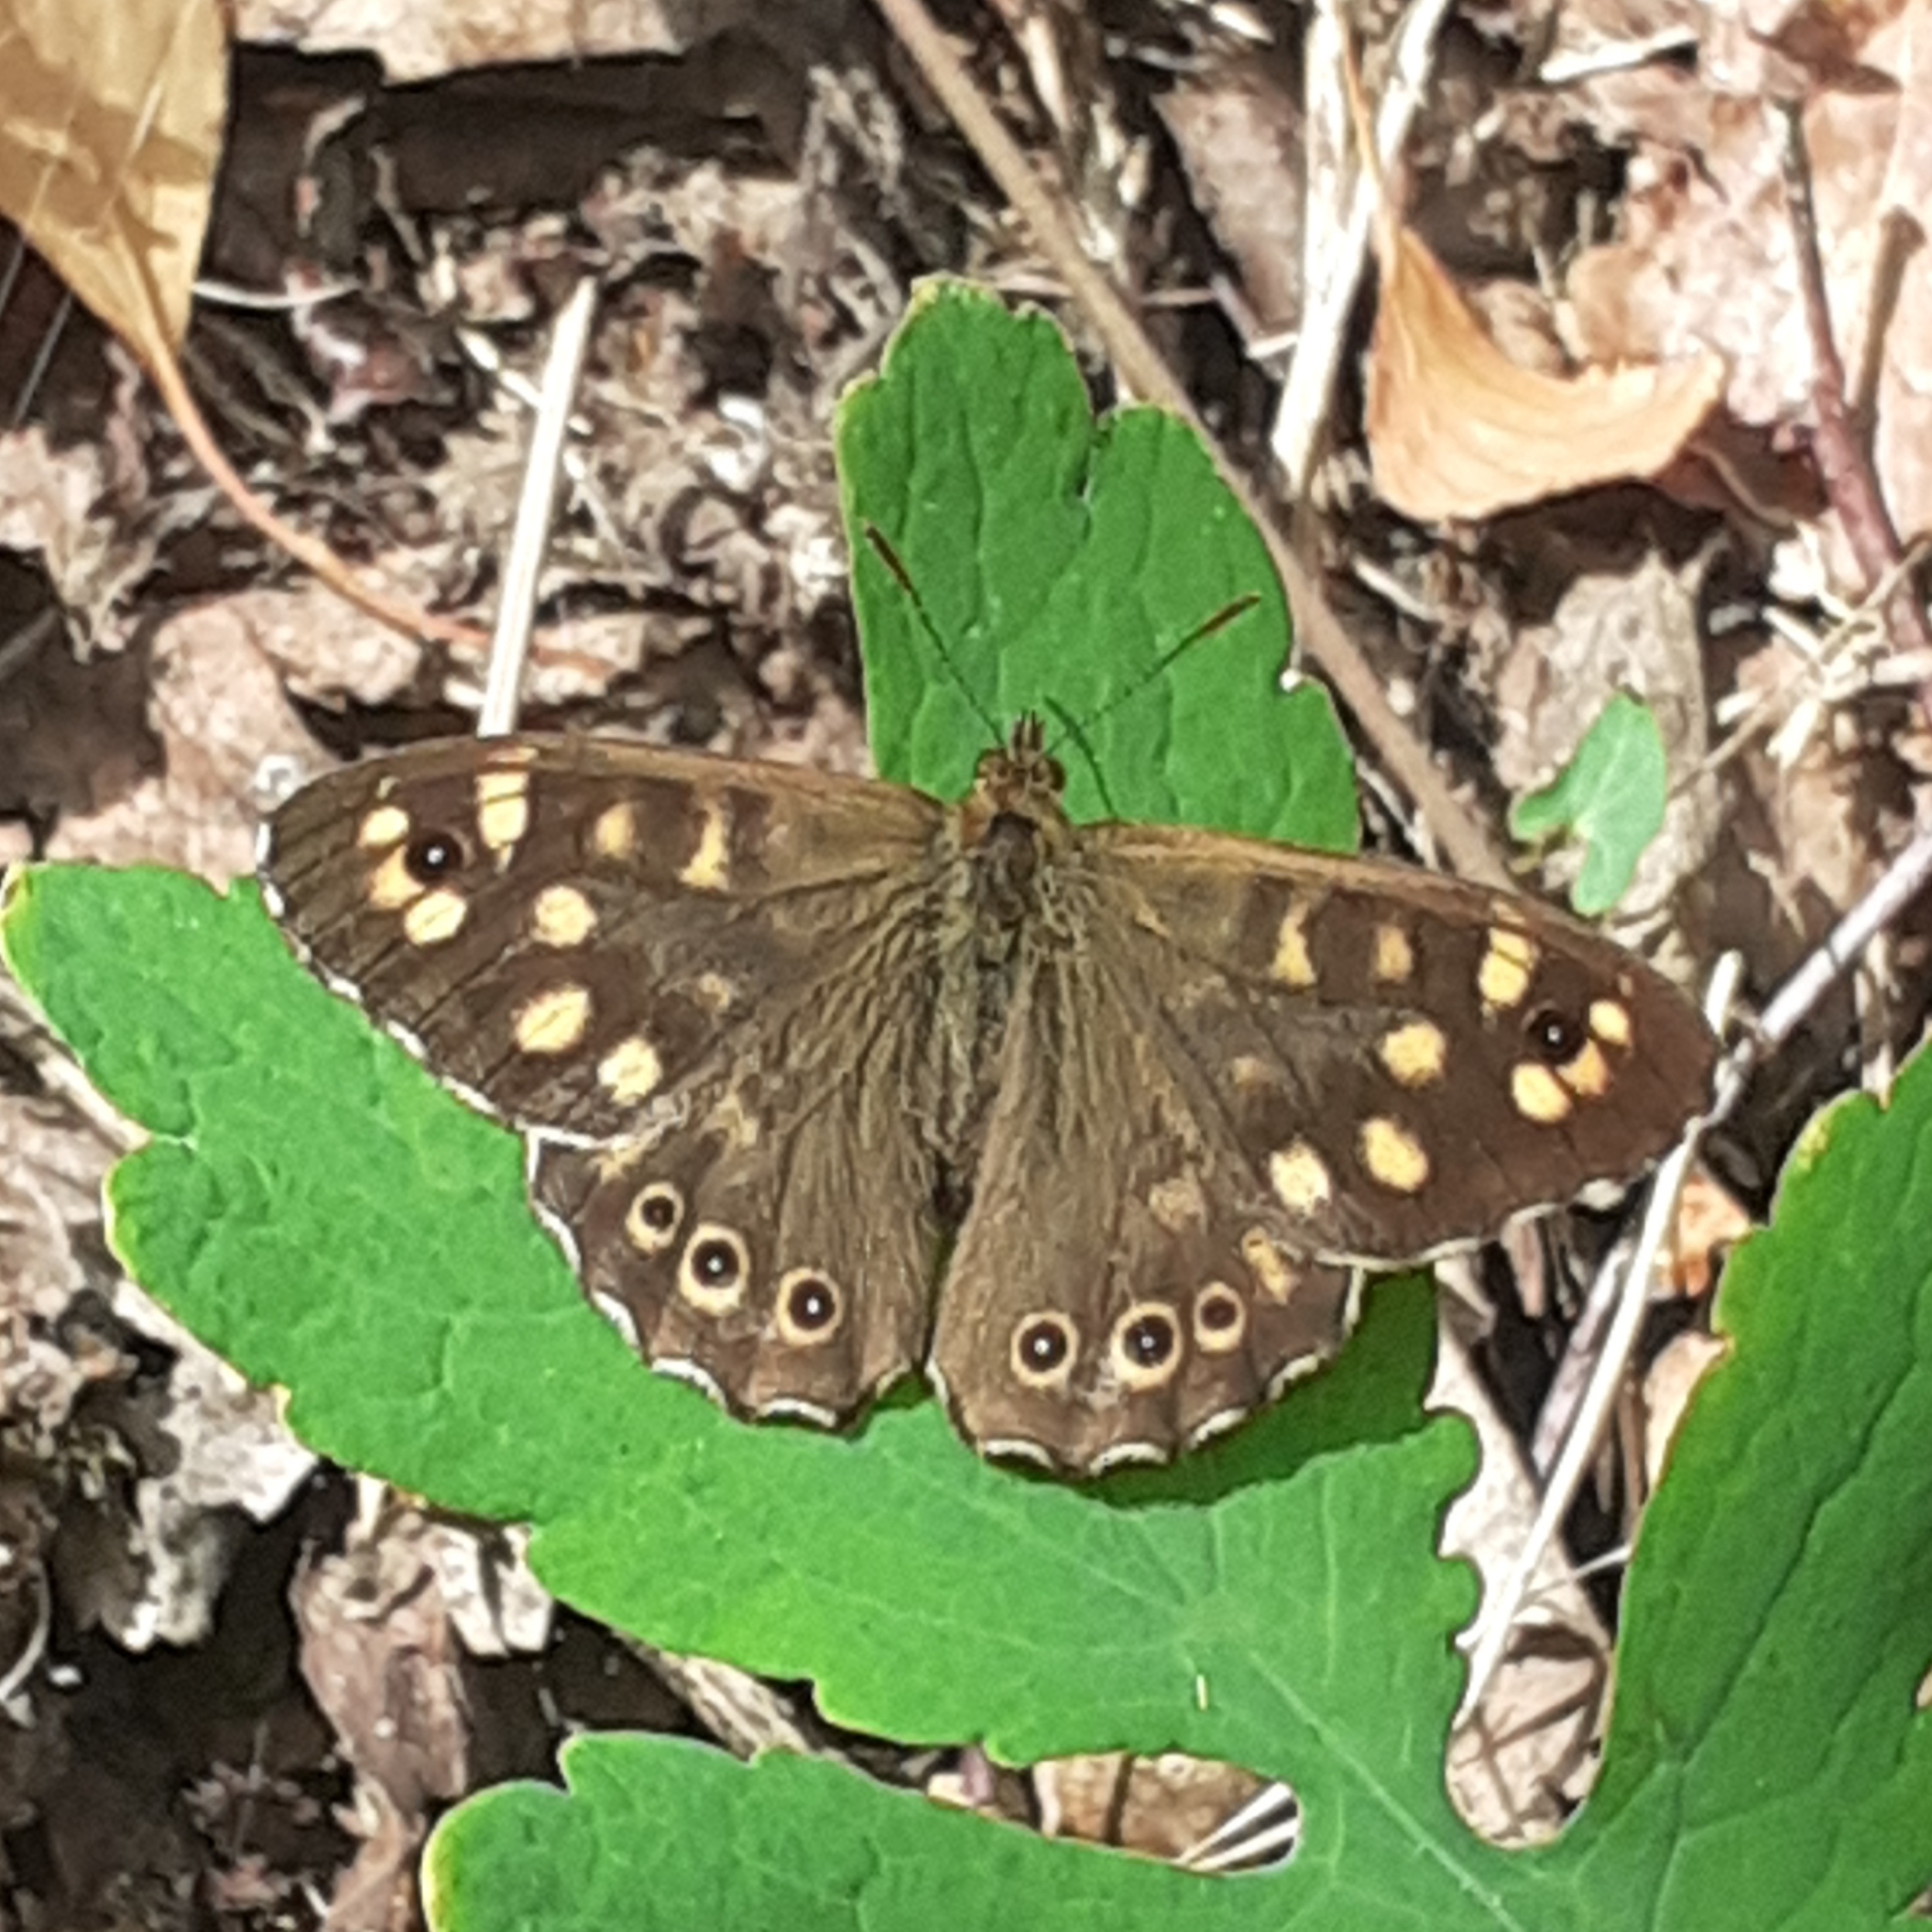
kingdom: Animalia
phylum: Arthropoda
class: Insecta
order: Lepidoptera
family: Nymphalidae
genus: Pararge
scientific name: Pararge aegeria
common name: Speckled wood
